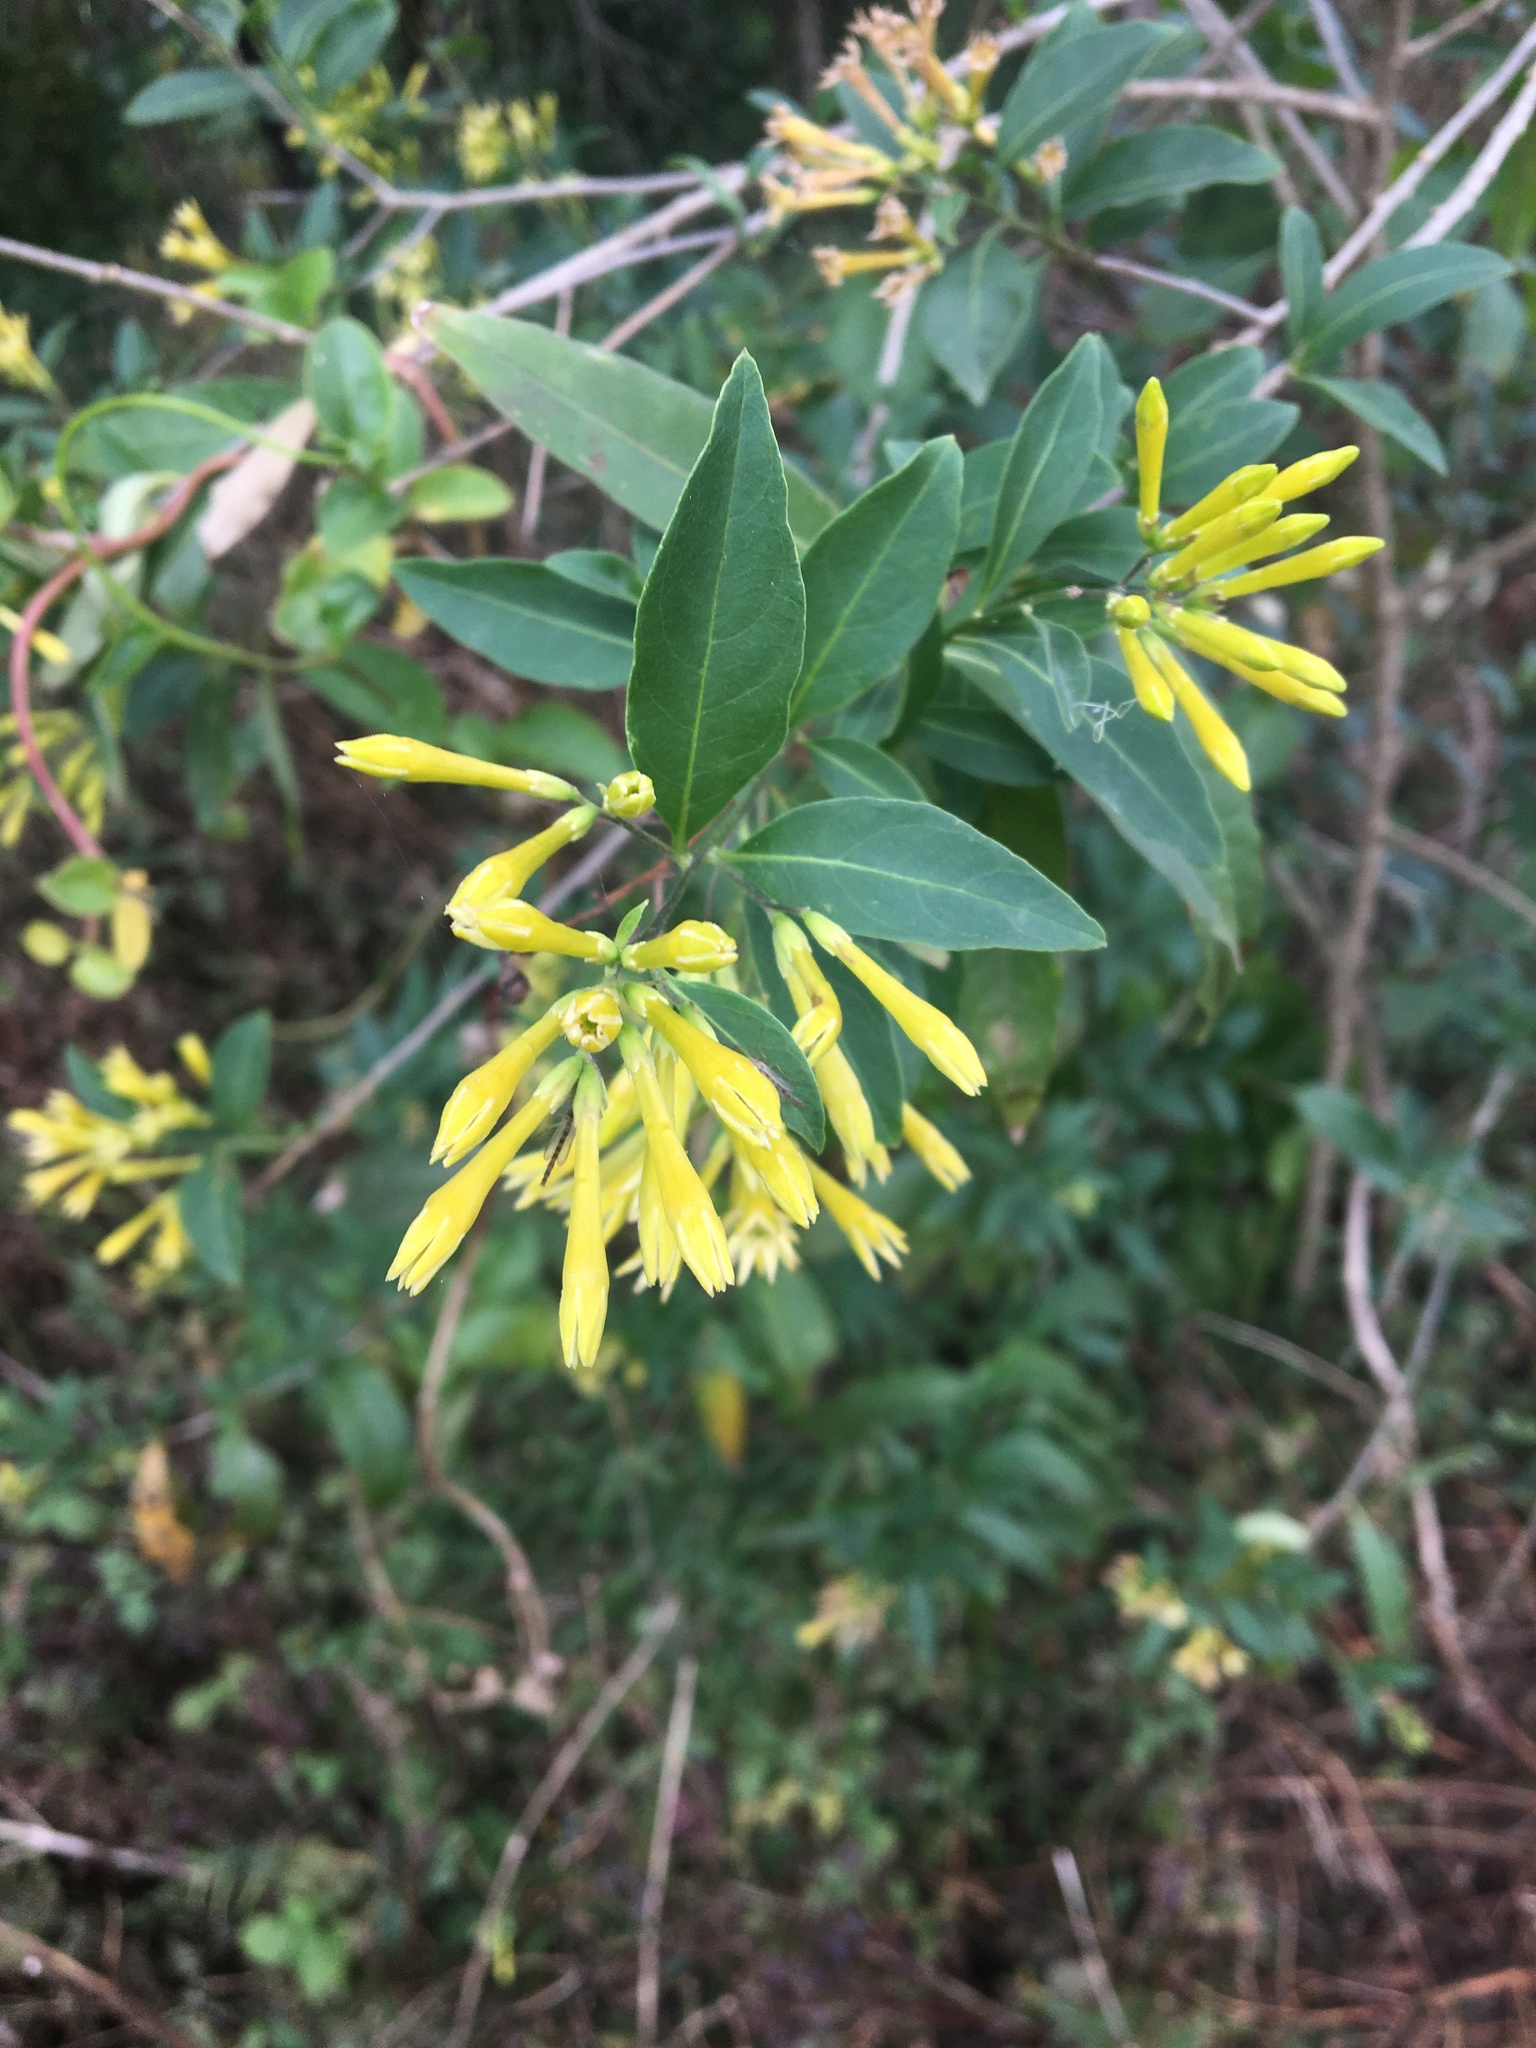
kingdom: Plantae
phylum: Tracheophyta
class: Magnoliopsida
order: Solanales
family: Solanaceae
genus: Cestrum
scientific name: Cestrum parqui
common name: Chilean cestrum
